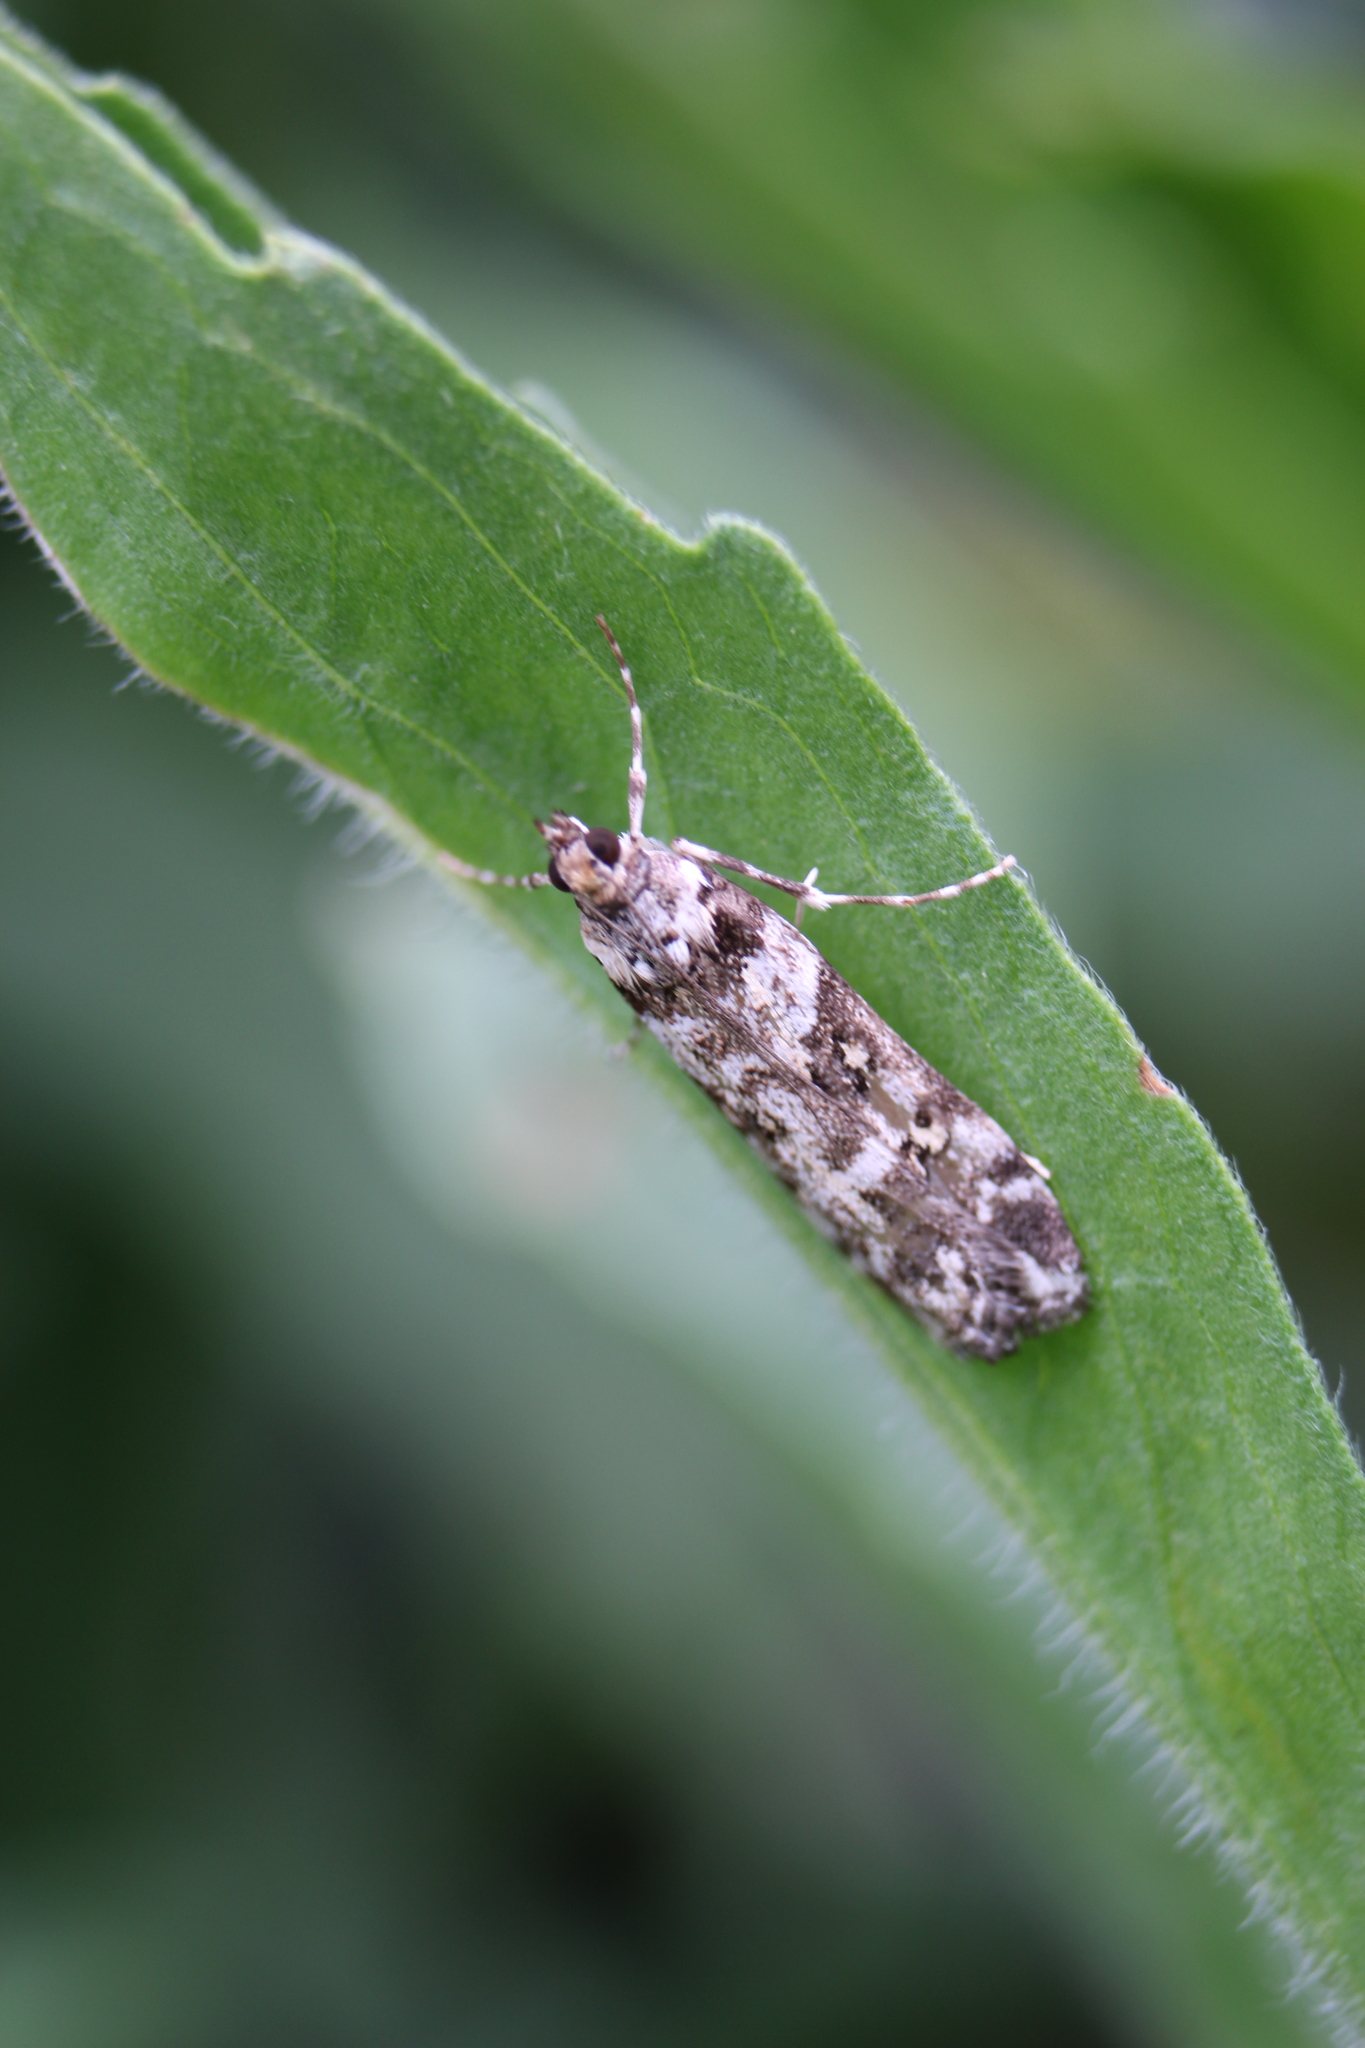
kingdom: Animalia
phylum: Arthropoda
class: Insecta
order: Lepidoptera
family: Crambidae
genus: Eudonia
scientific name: Eudonia diphtheralis
